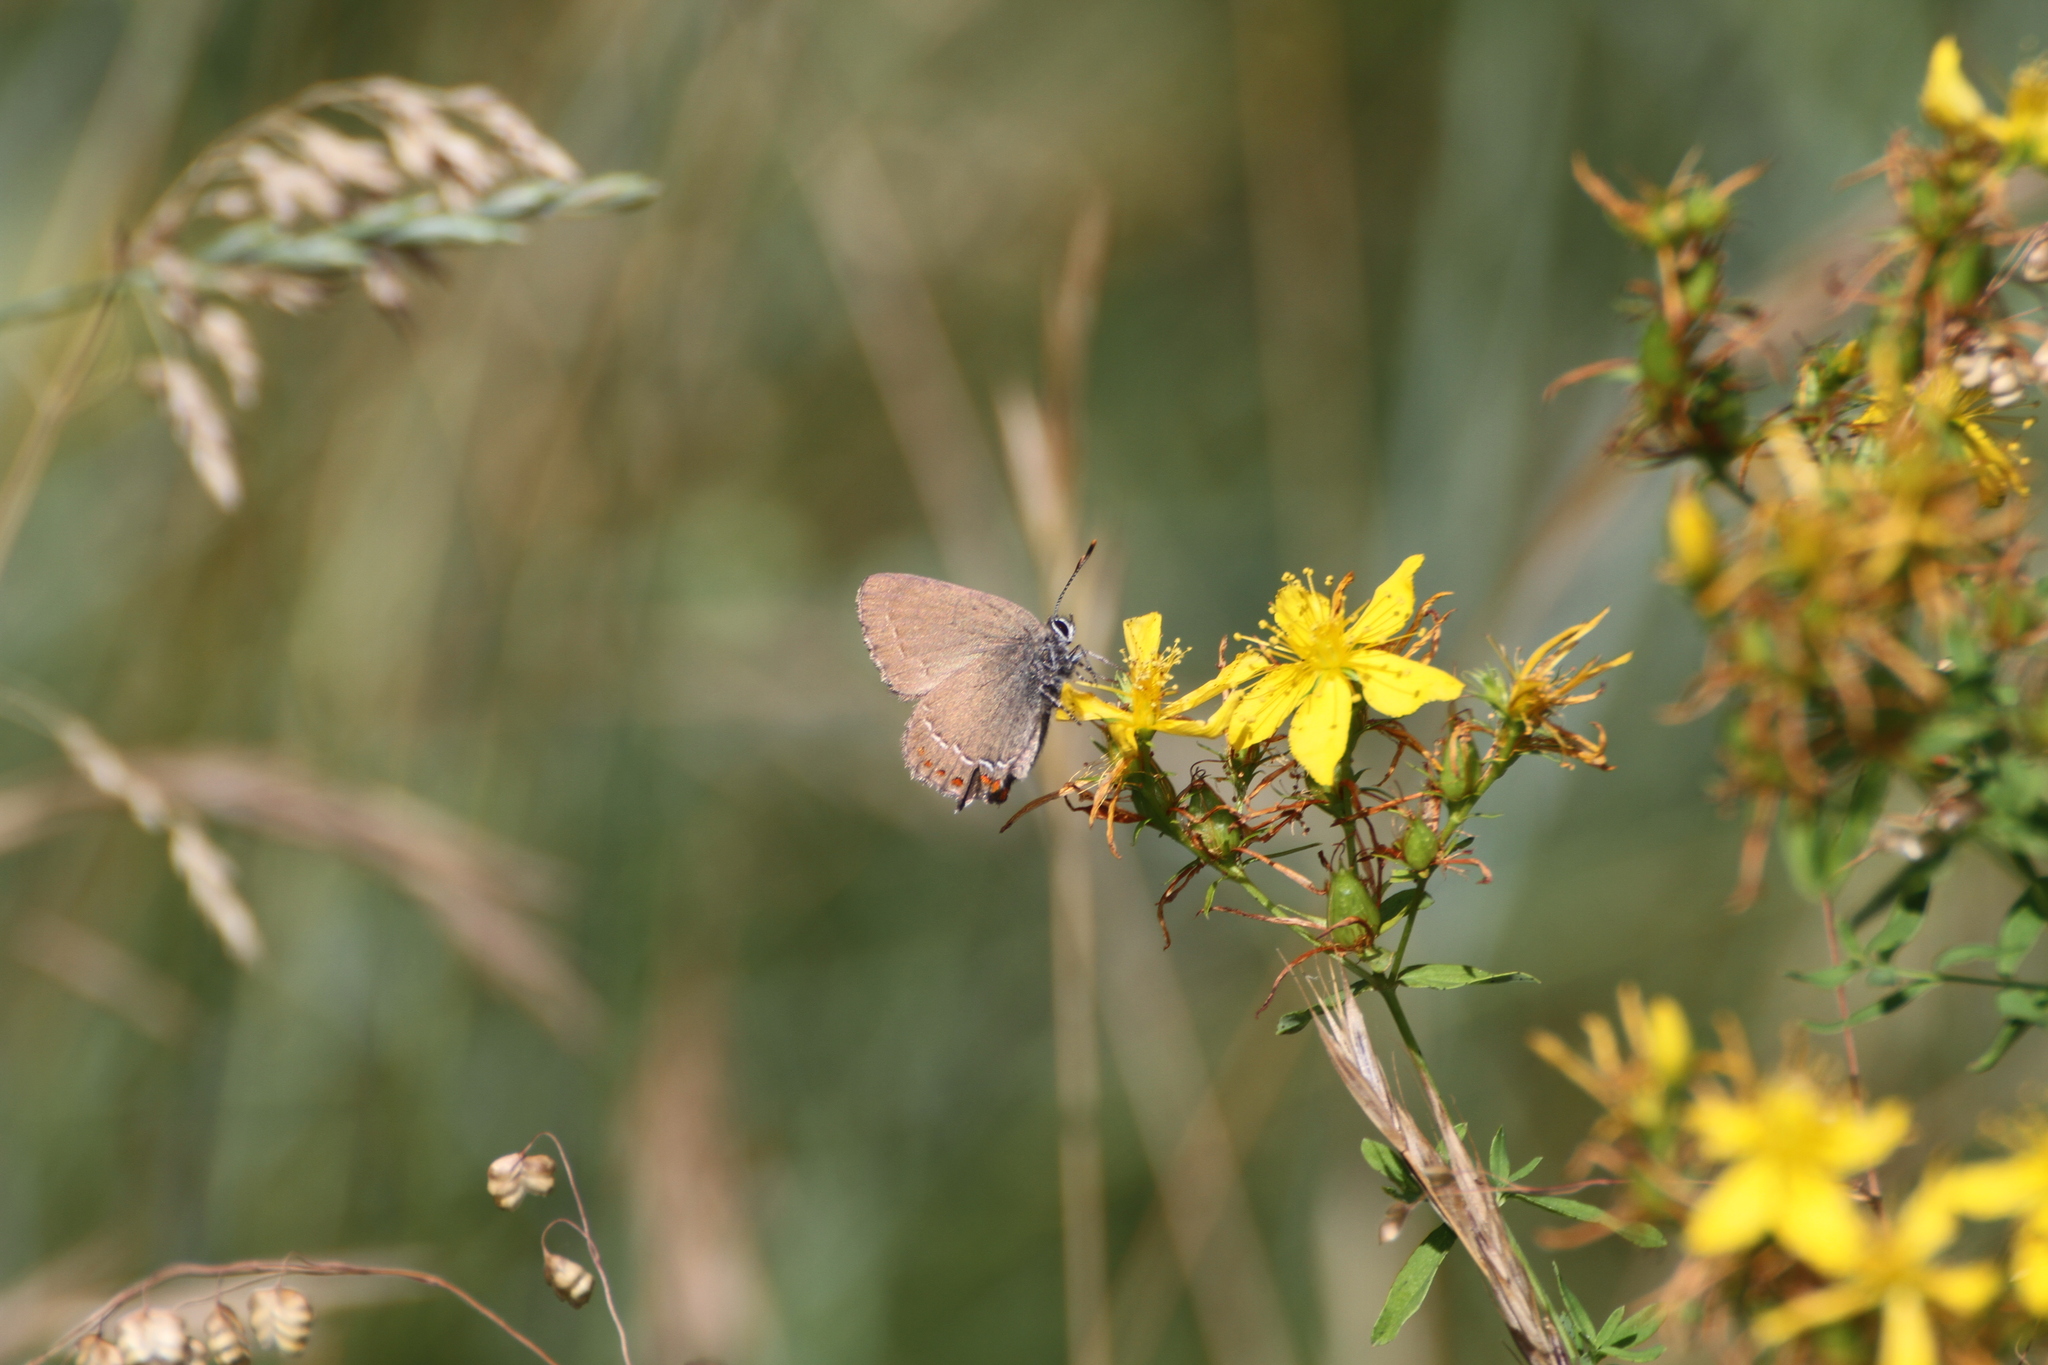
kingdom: Animalia
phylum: Arthropoda
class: Insecta
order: Lepidoptera
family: Lycaenidae
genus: Fixsenia
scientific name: Fixsenia esculi
